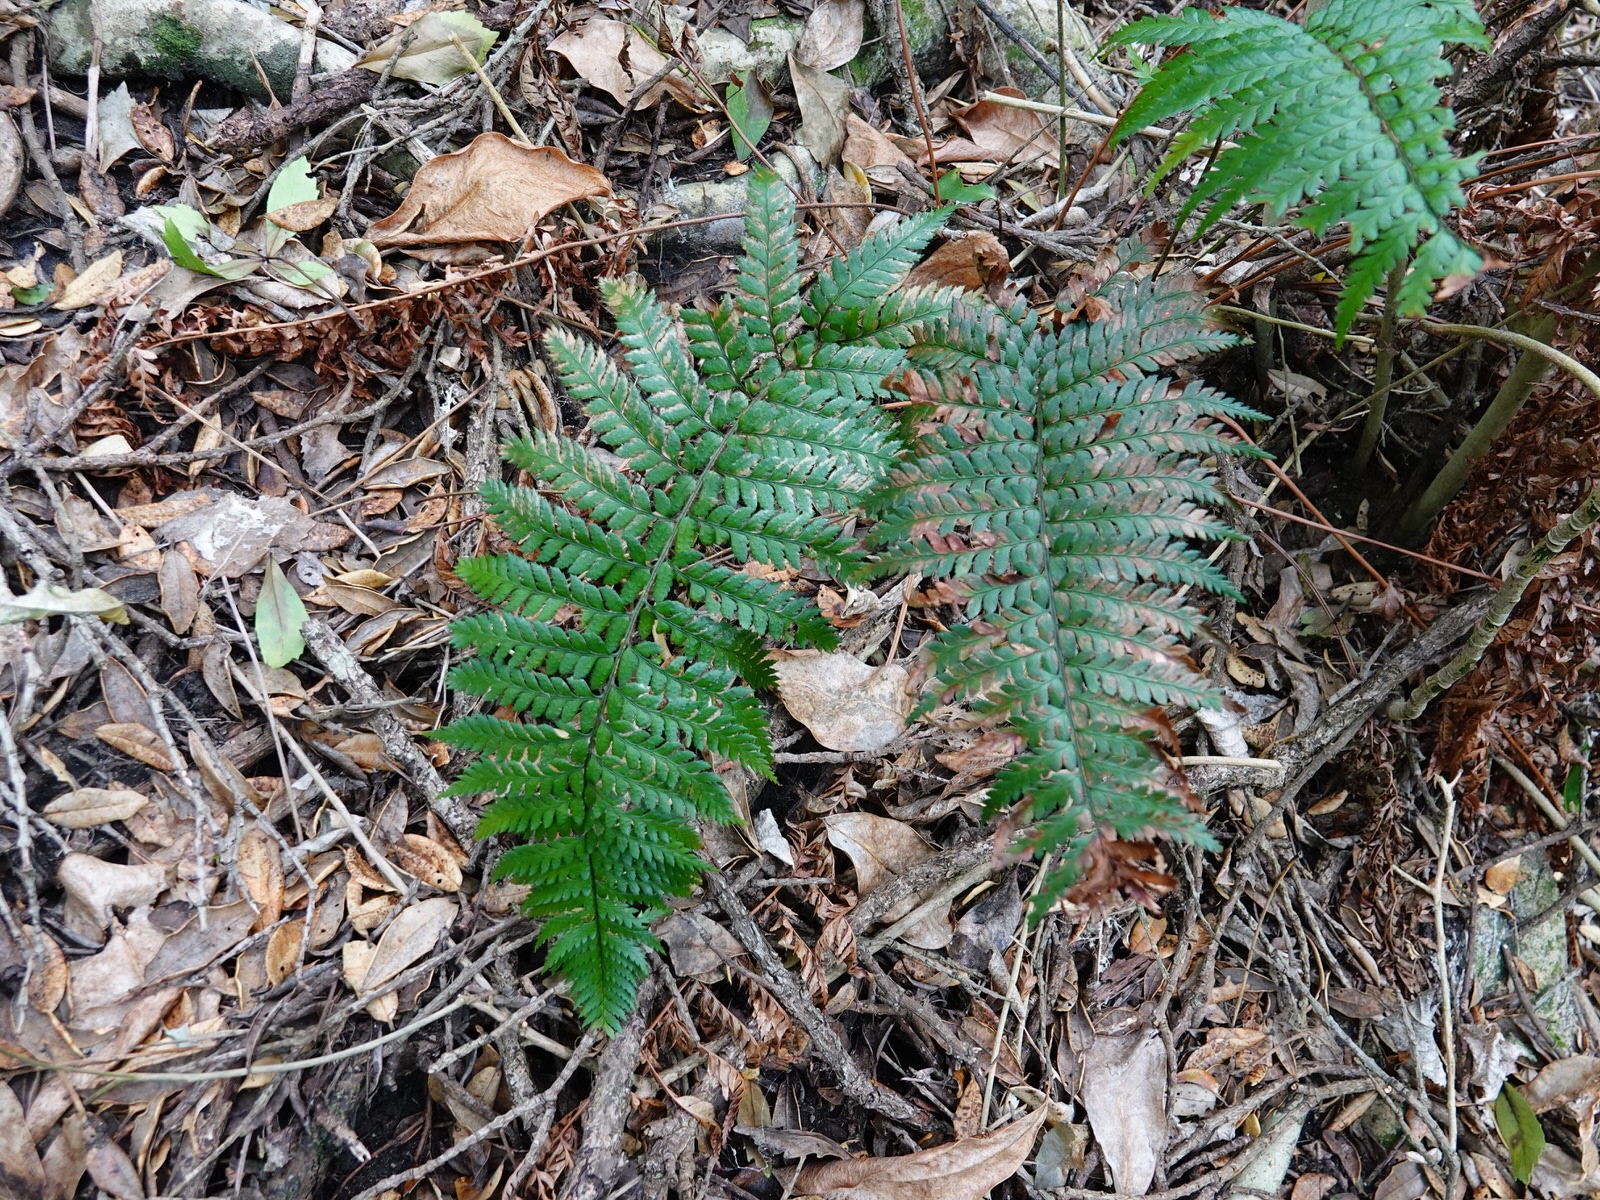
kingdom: Plantae
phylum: Tracheophyta
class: Polypodiopsida
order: Polypodiales
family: Dryopteridaceae
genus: Polystichum
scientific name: Polystichum wawranum
